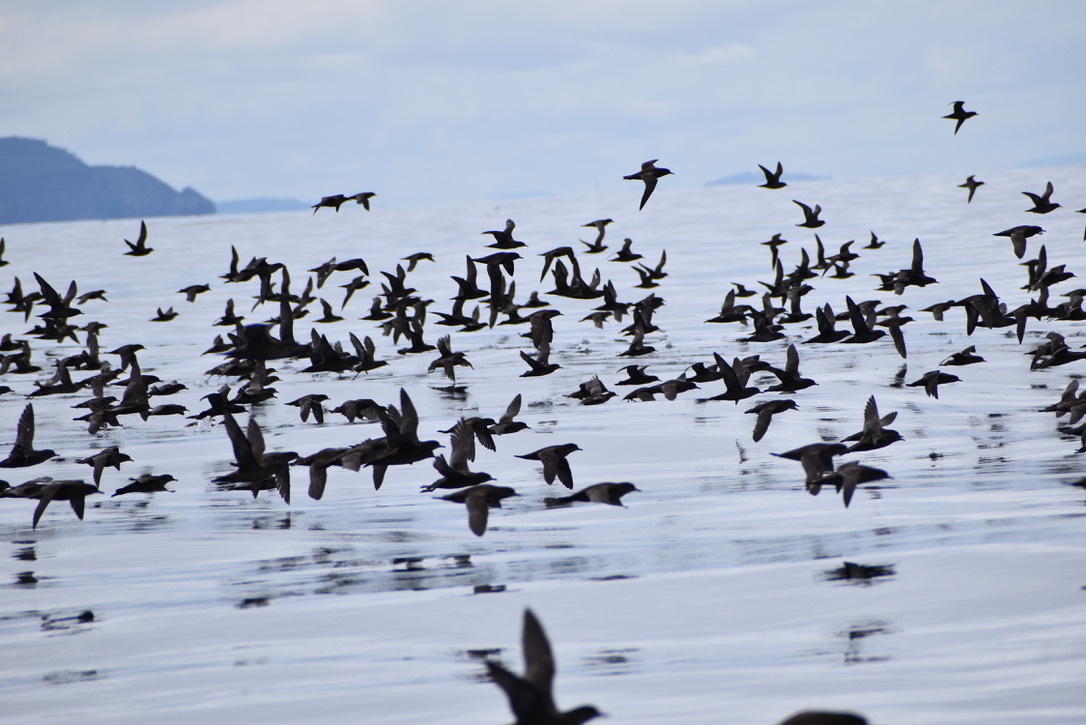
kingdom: Animalia
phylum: Chordata
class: Aves
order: Procellariiformes
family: Procellariidae
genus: Puffinus
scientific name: Puffinus tenuirostris
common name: Short-tailed shearwater
